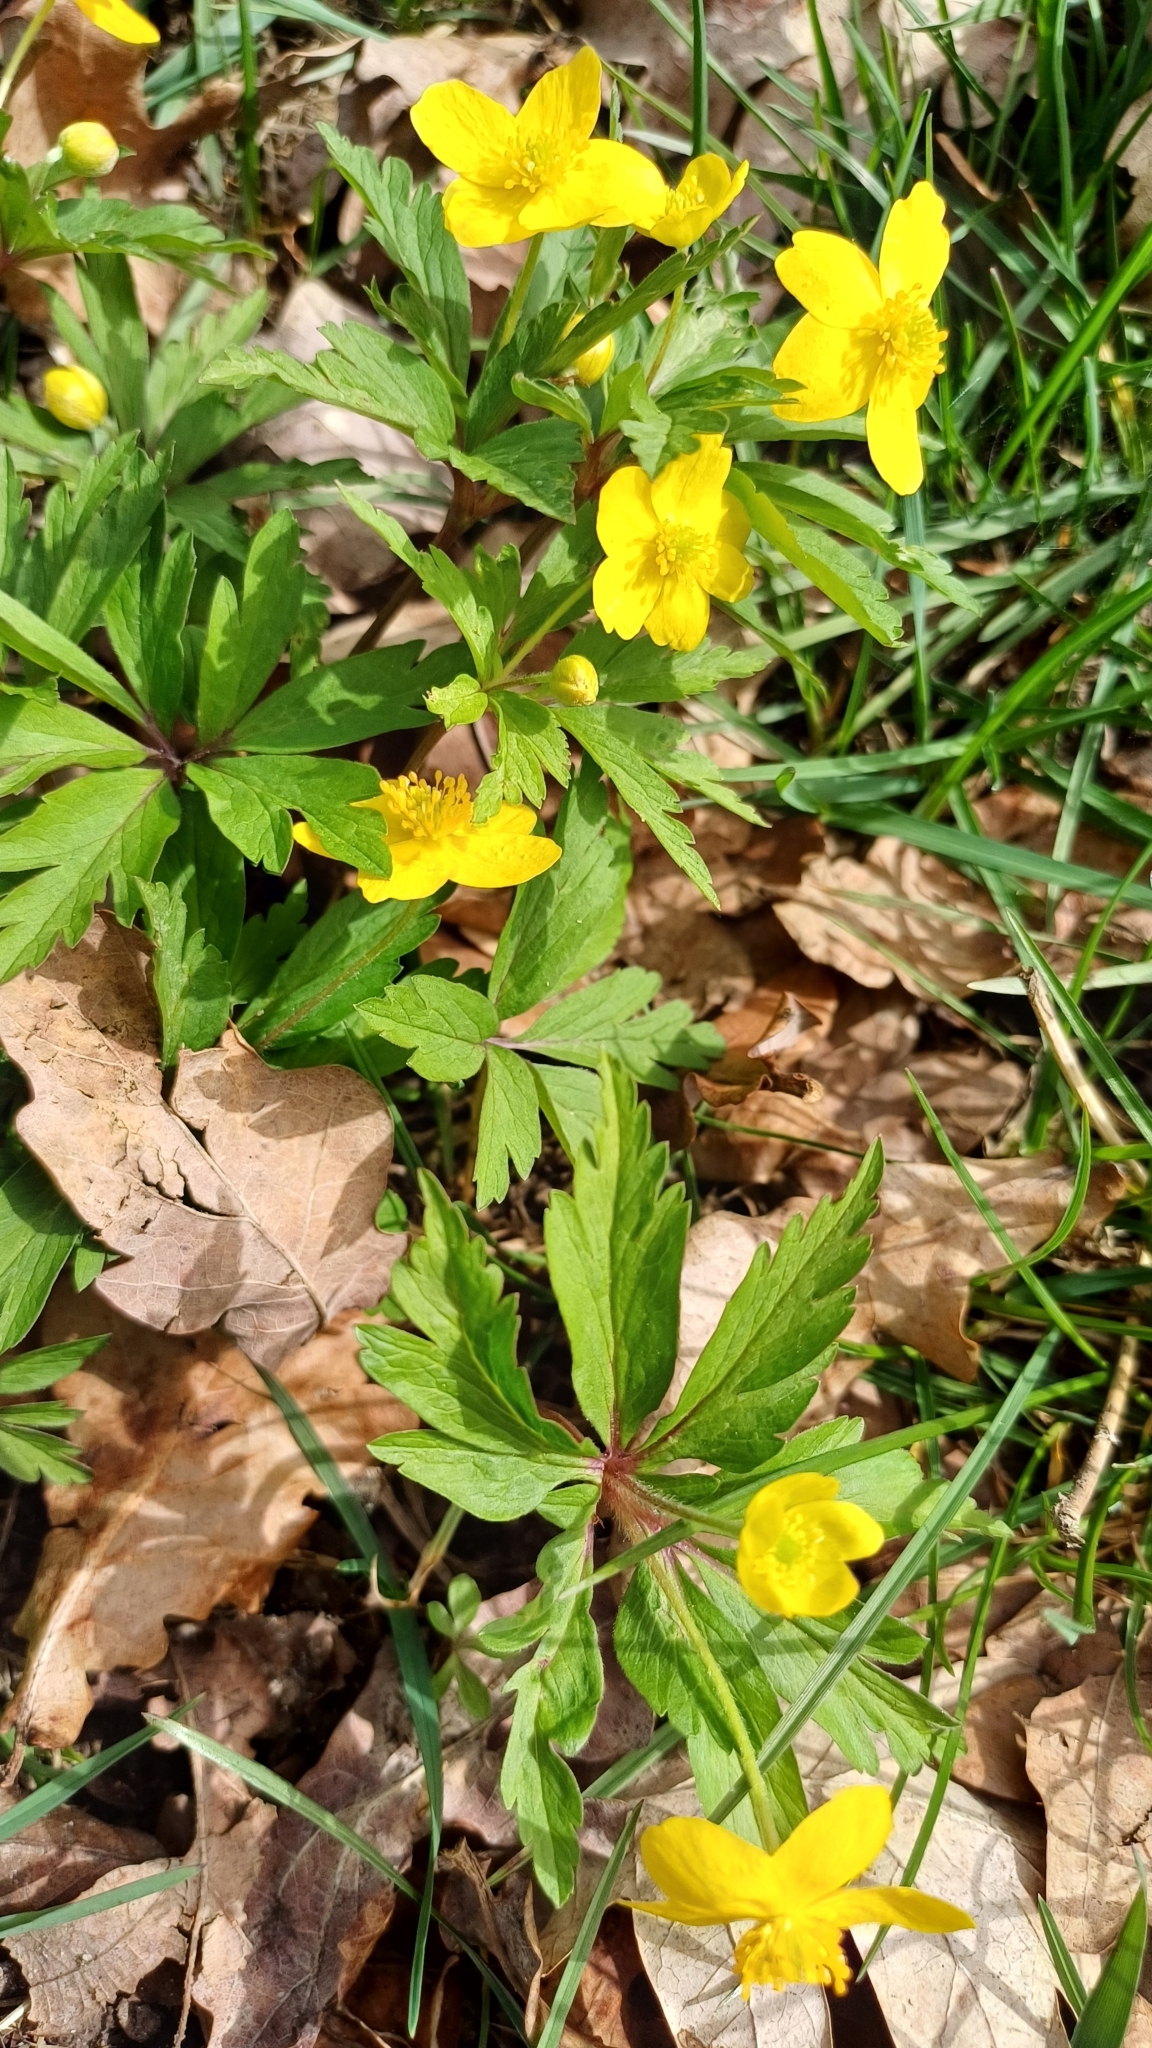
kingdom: Plantae
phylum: Tracheophyta
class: Magnoliopsida
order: Ranunculales
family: Ranunculaceae
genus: Anemone
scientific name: Anemone ranunculoides
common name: Yellow anemone
